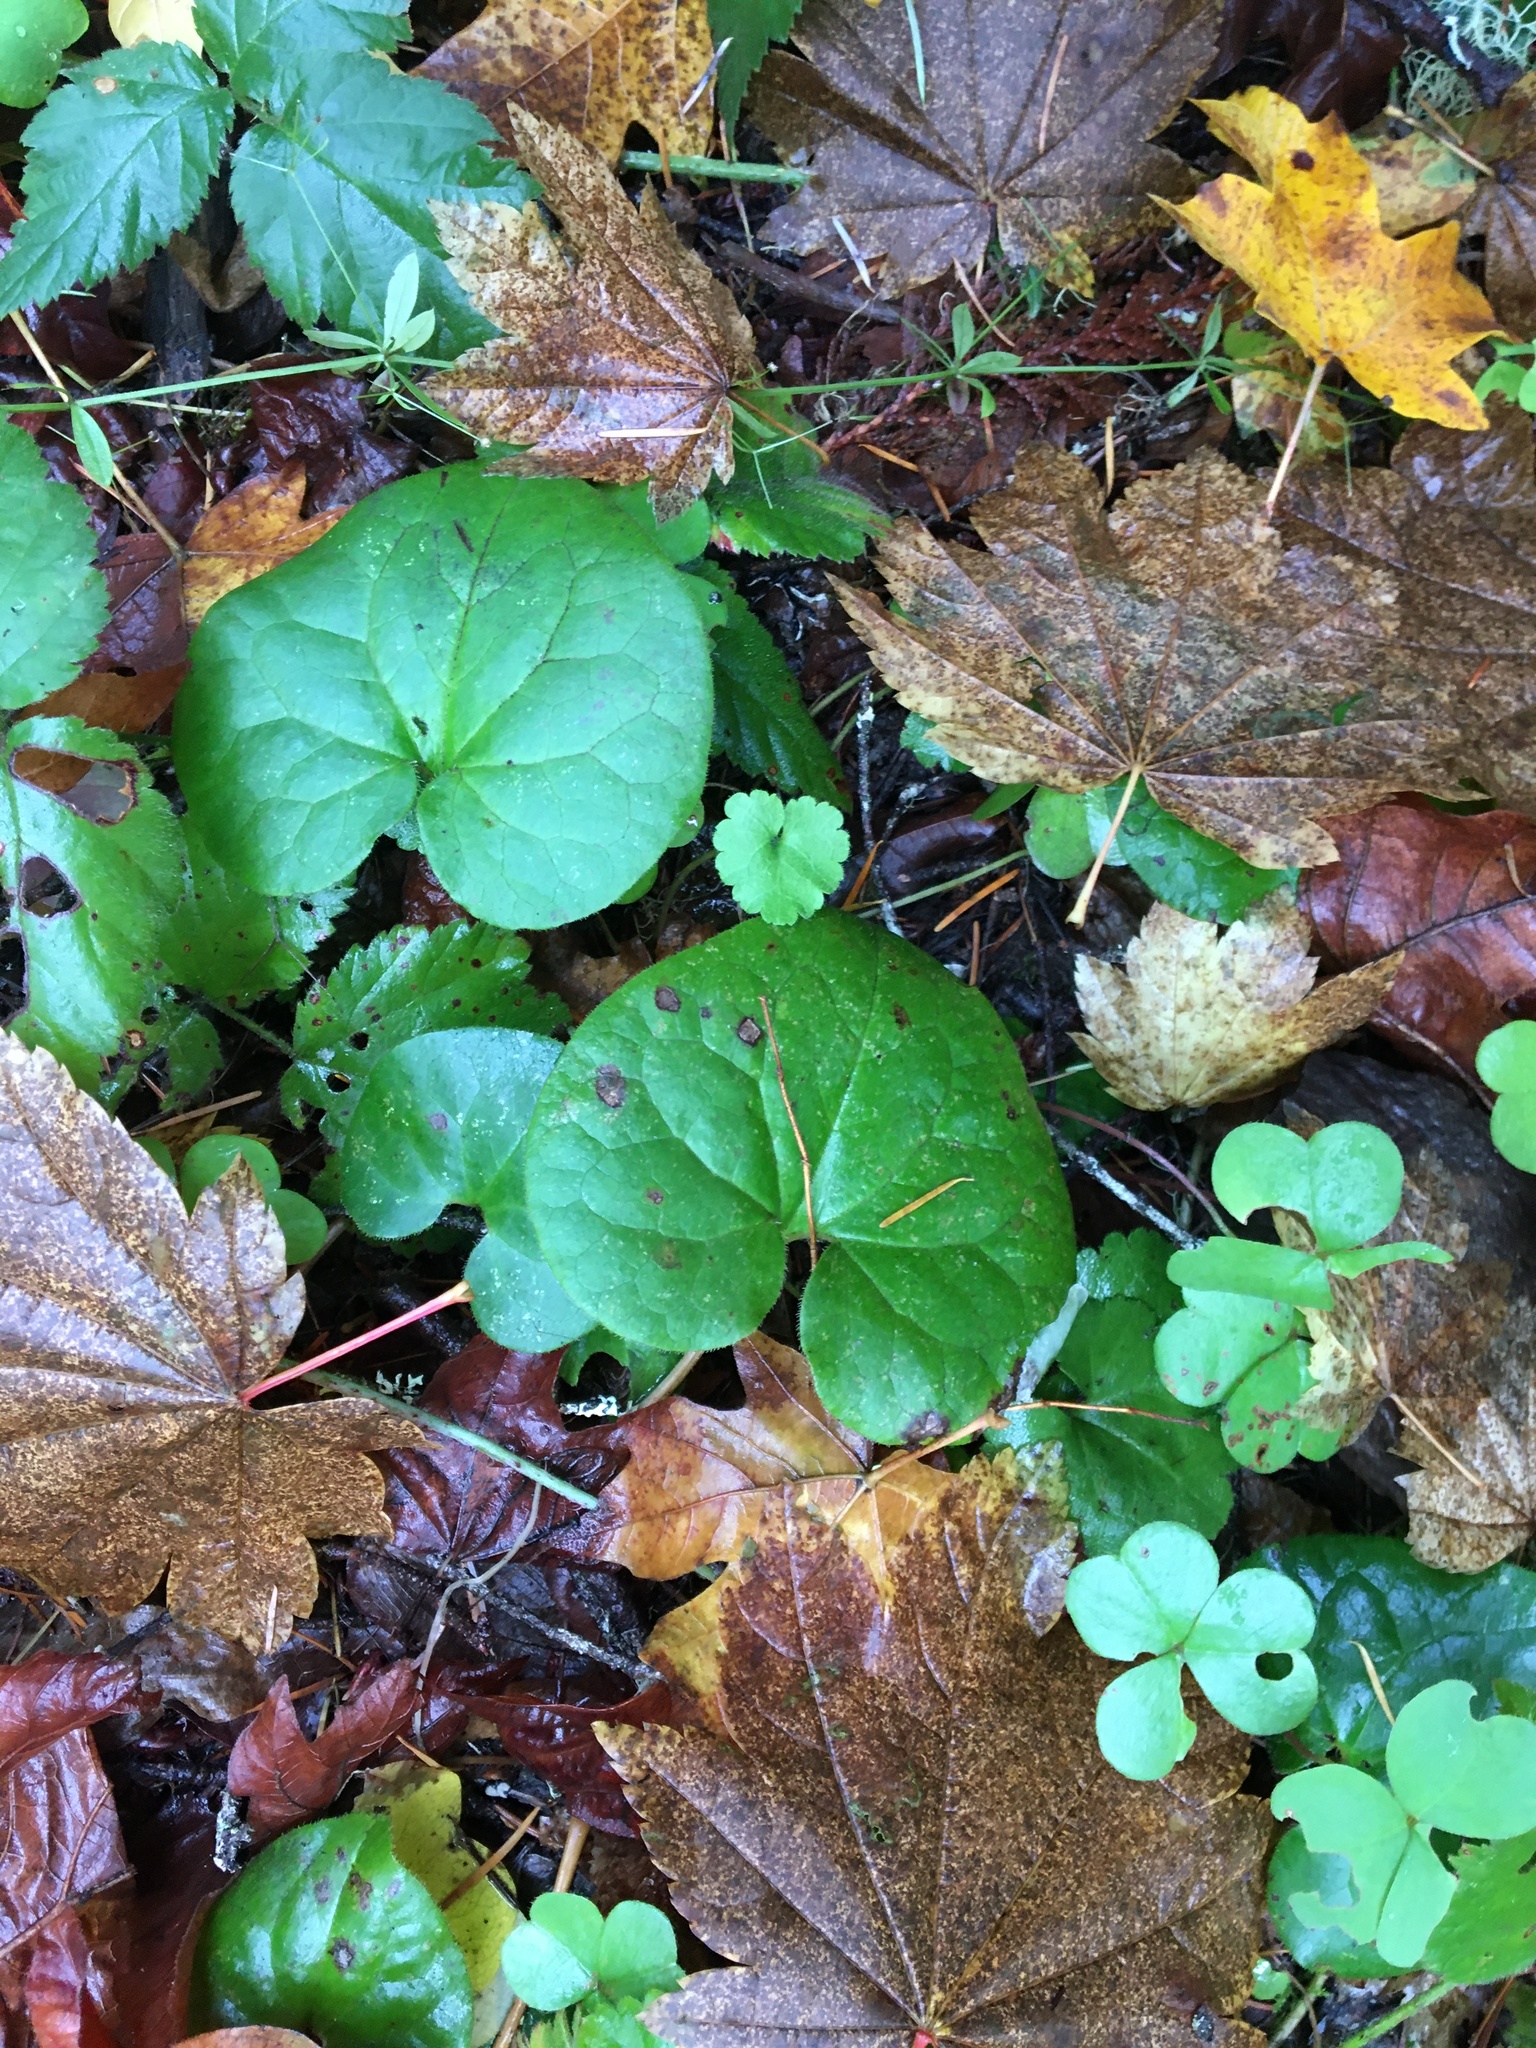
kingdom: Plantae
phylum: Tracheophyta
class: Magnoliopsida
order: Piperales
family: Aristolochiaceae
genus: Asarum
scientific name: Asarum caudatum
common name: Wild ginger
